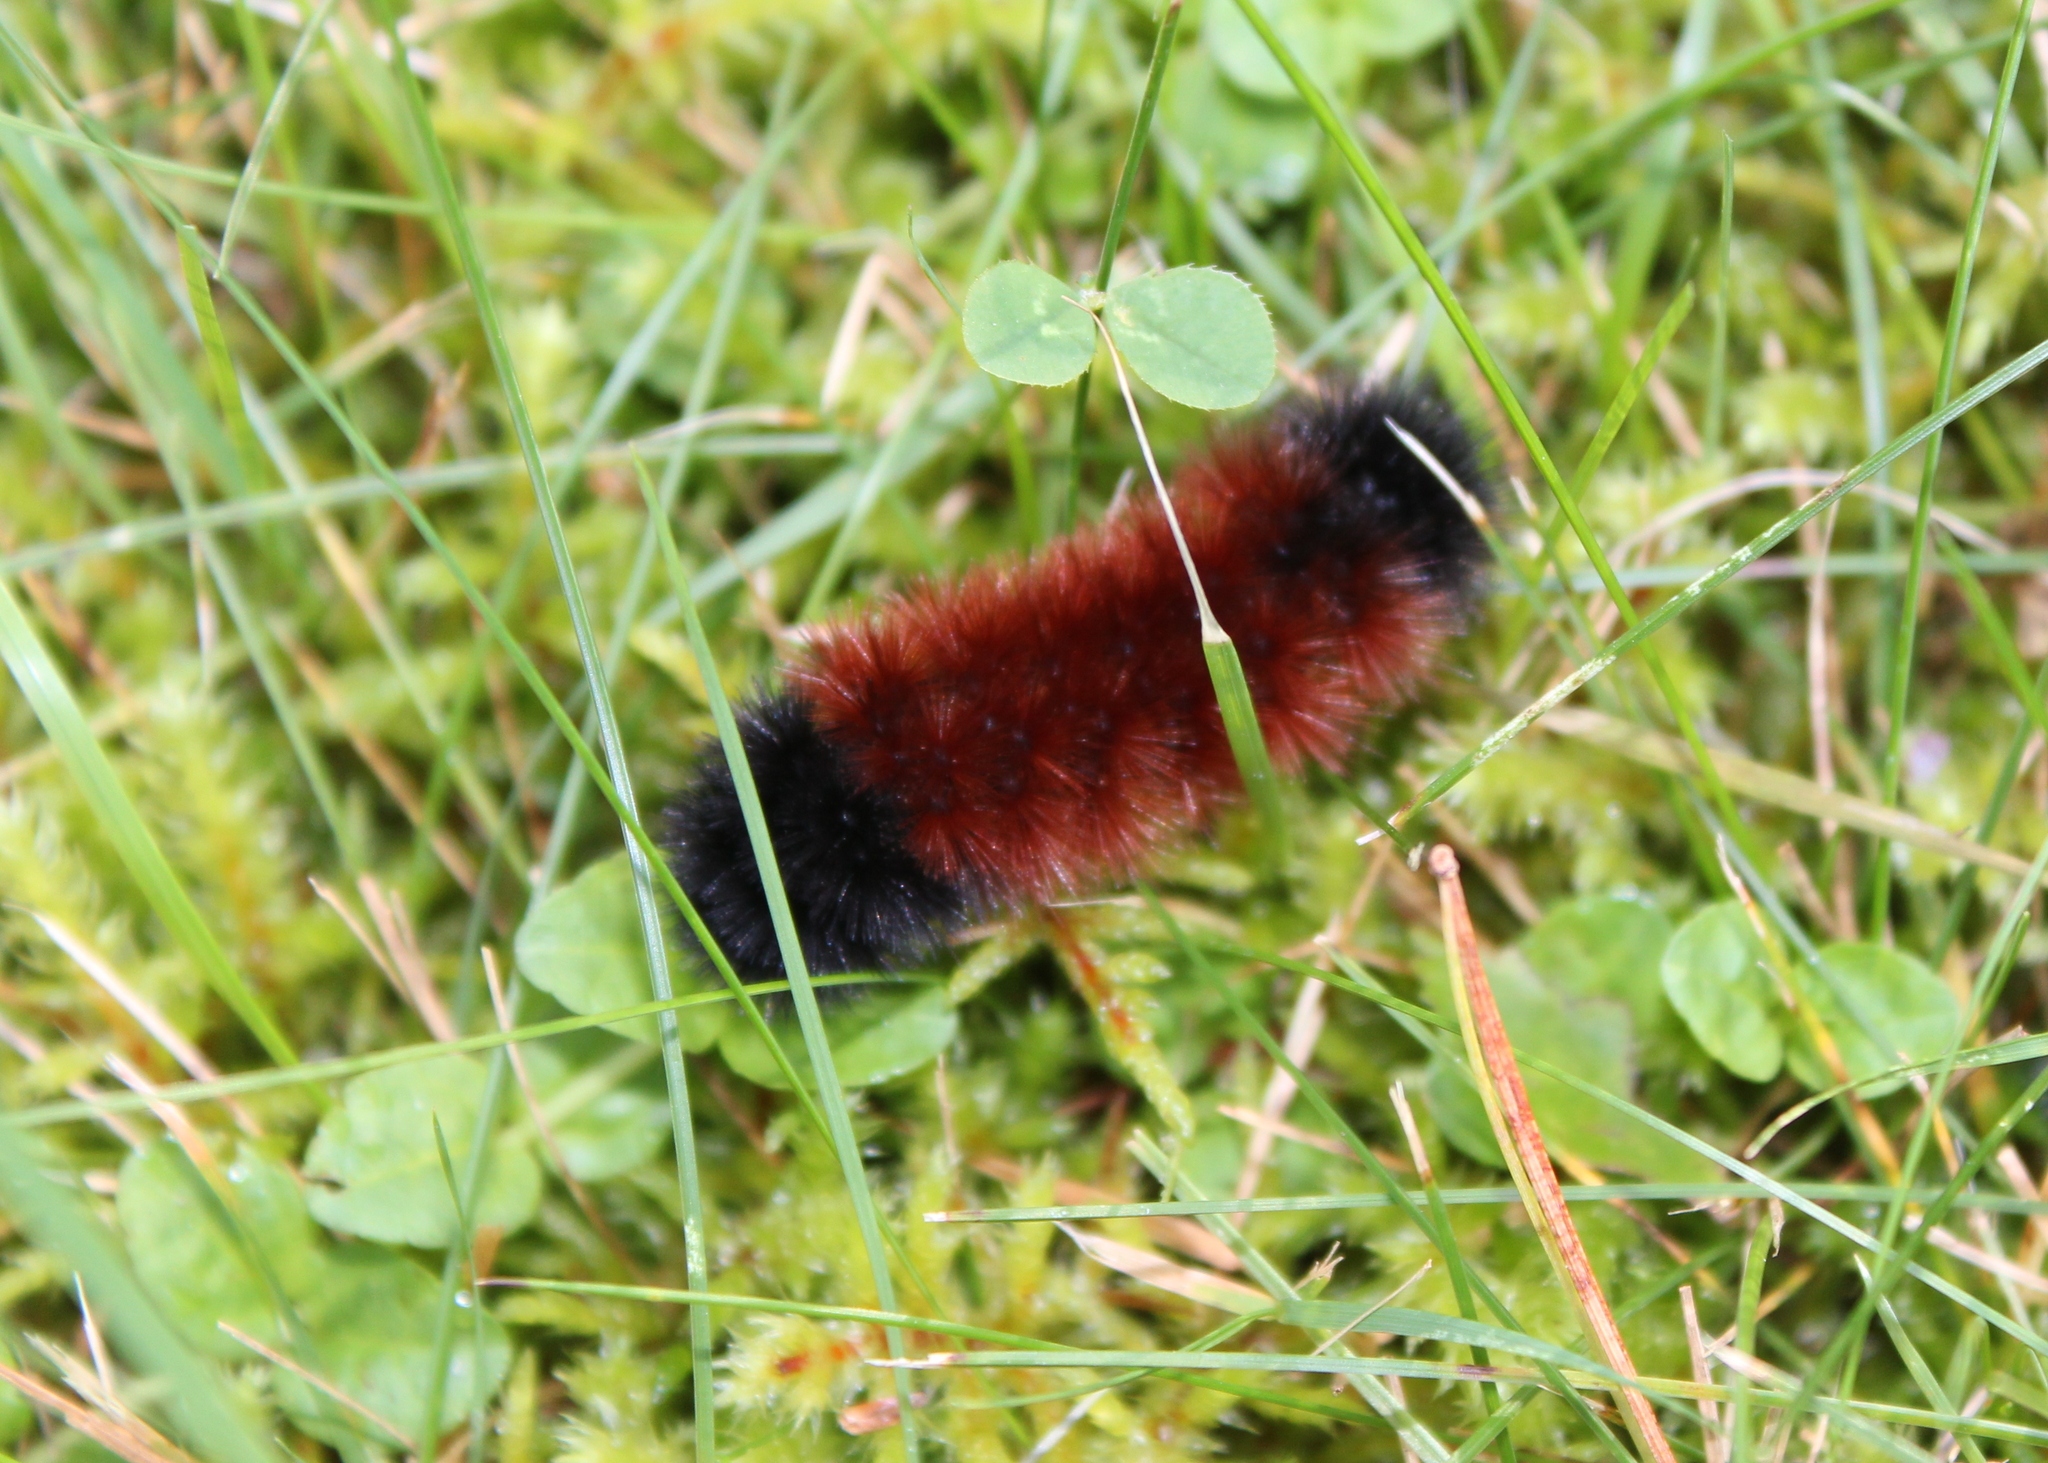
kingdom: Animalia
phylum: Arthropoda
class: Insecta
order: Lepidoptera
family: Erebidae
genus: Pyrrharctia
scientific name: Pyrrharctia isabella
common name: Isabella tiger moth
